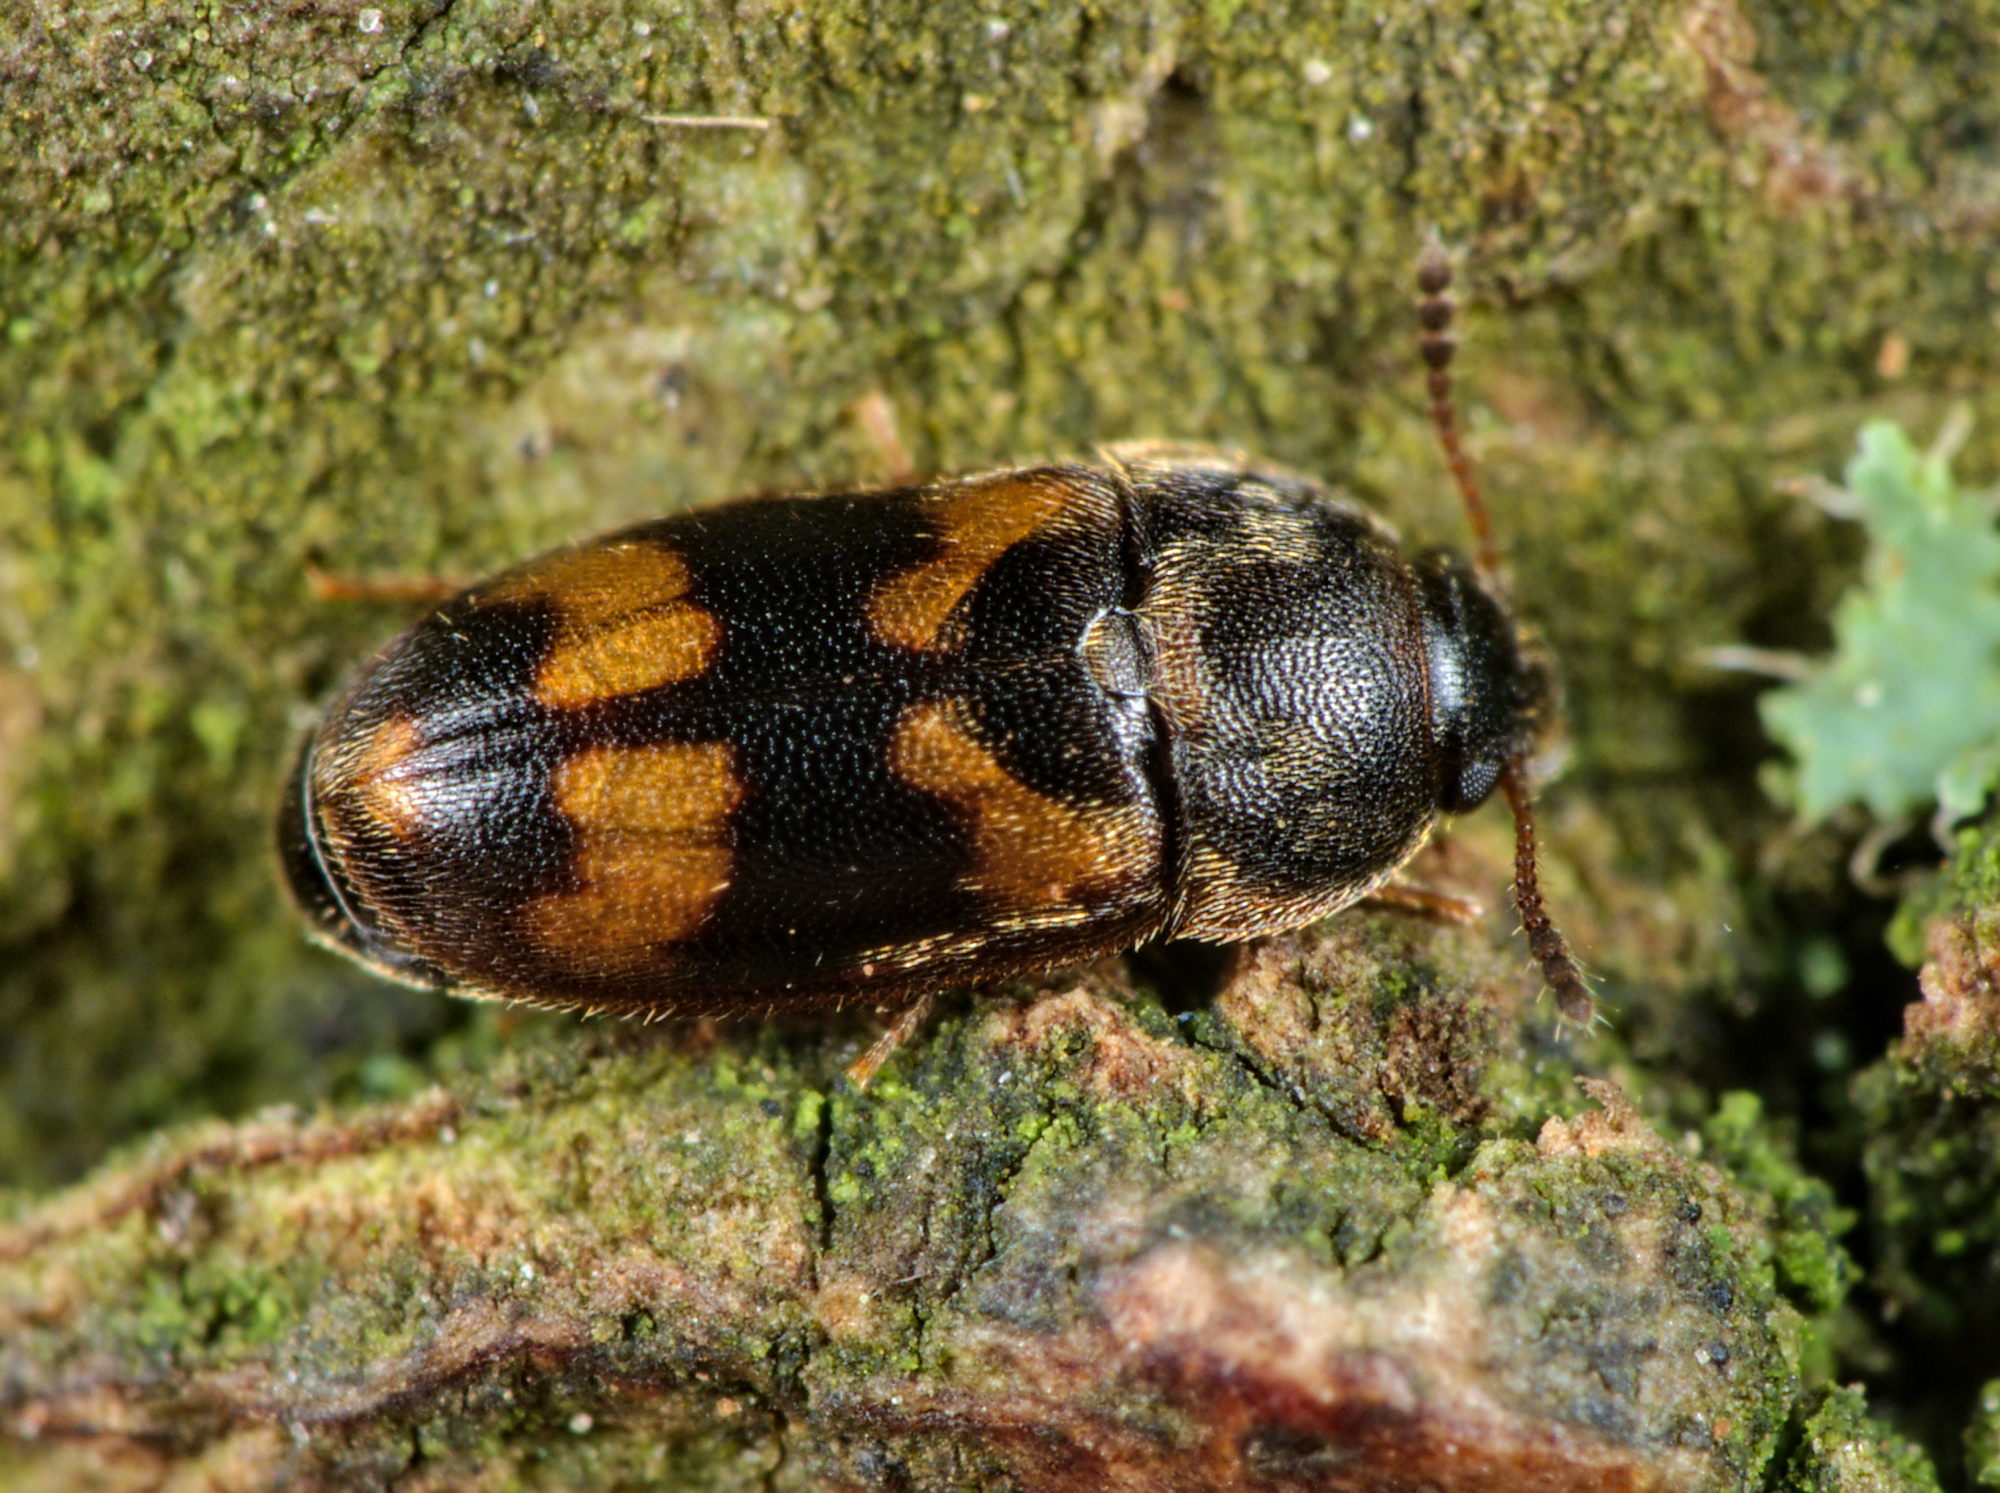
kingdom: Animalia
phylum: Arthropoda
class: Insecta
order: Coleoptera
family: Mycetophagidae
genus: Litargus
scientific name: Litargus connexus
